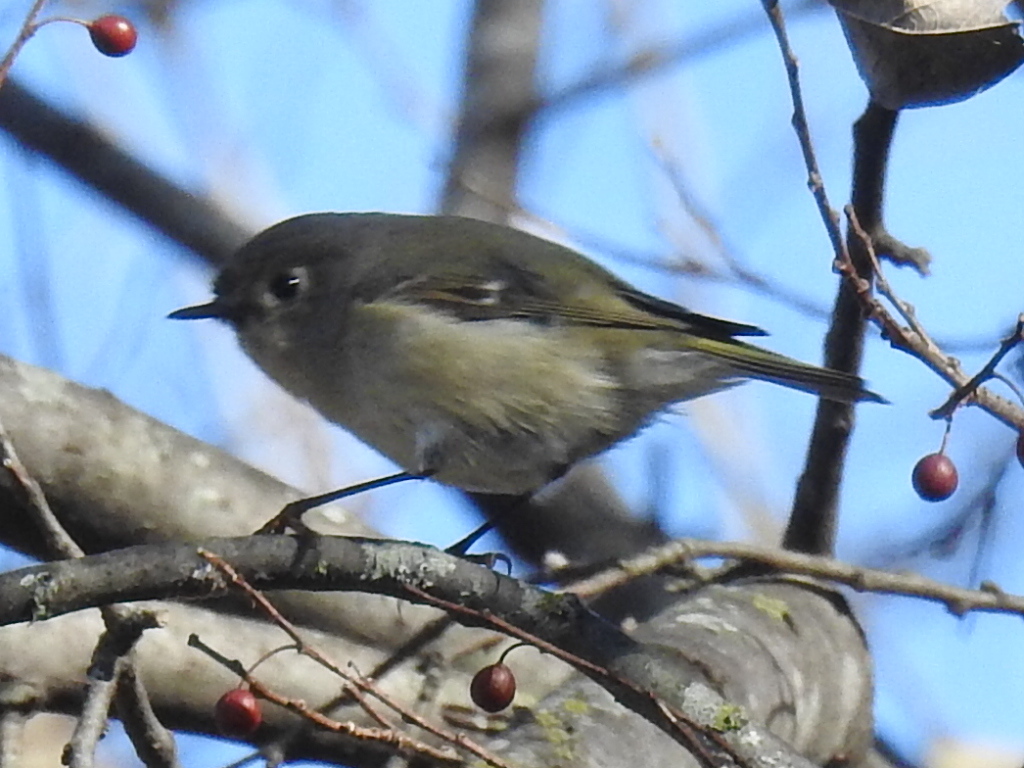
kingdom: Animalia
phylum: Chordata
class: Aves
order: Passeriformes
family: Regulidae
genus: Regulus
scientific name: Regulus calendula
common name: Ruby-crowned kinglet
